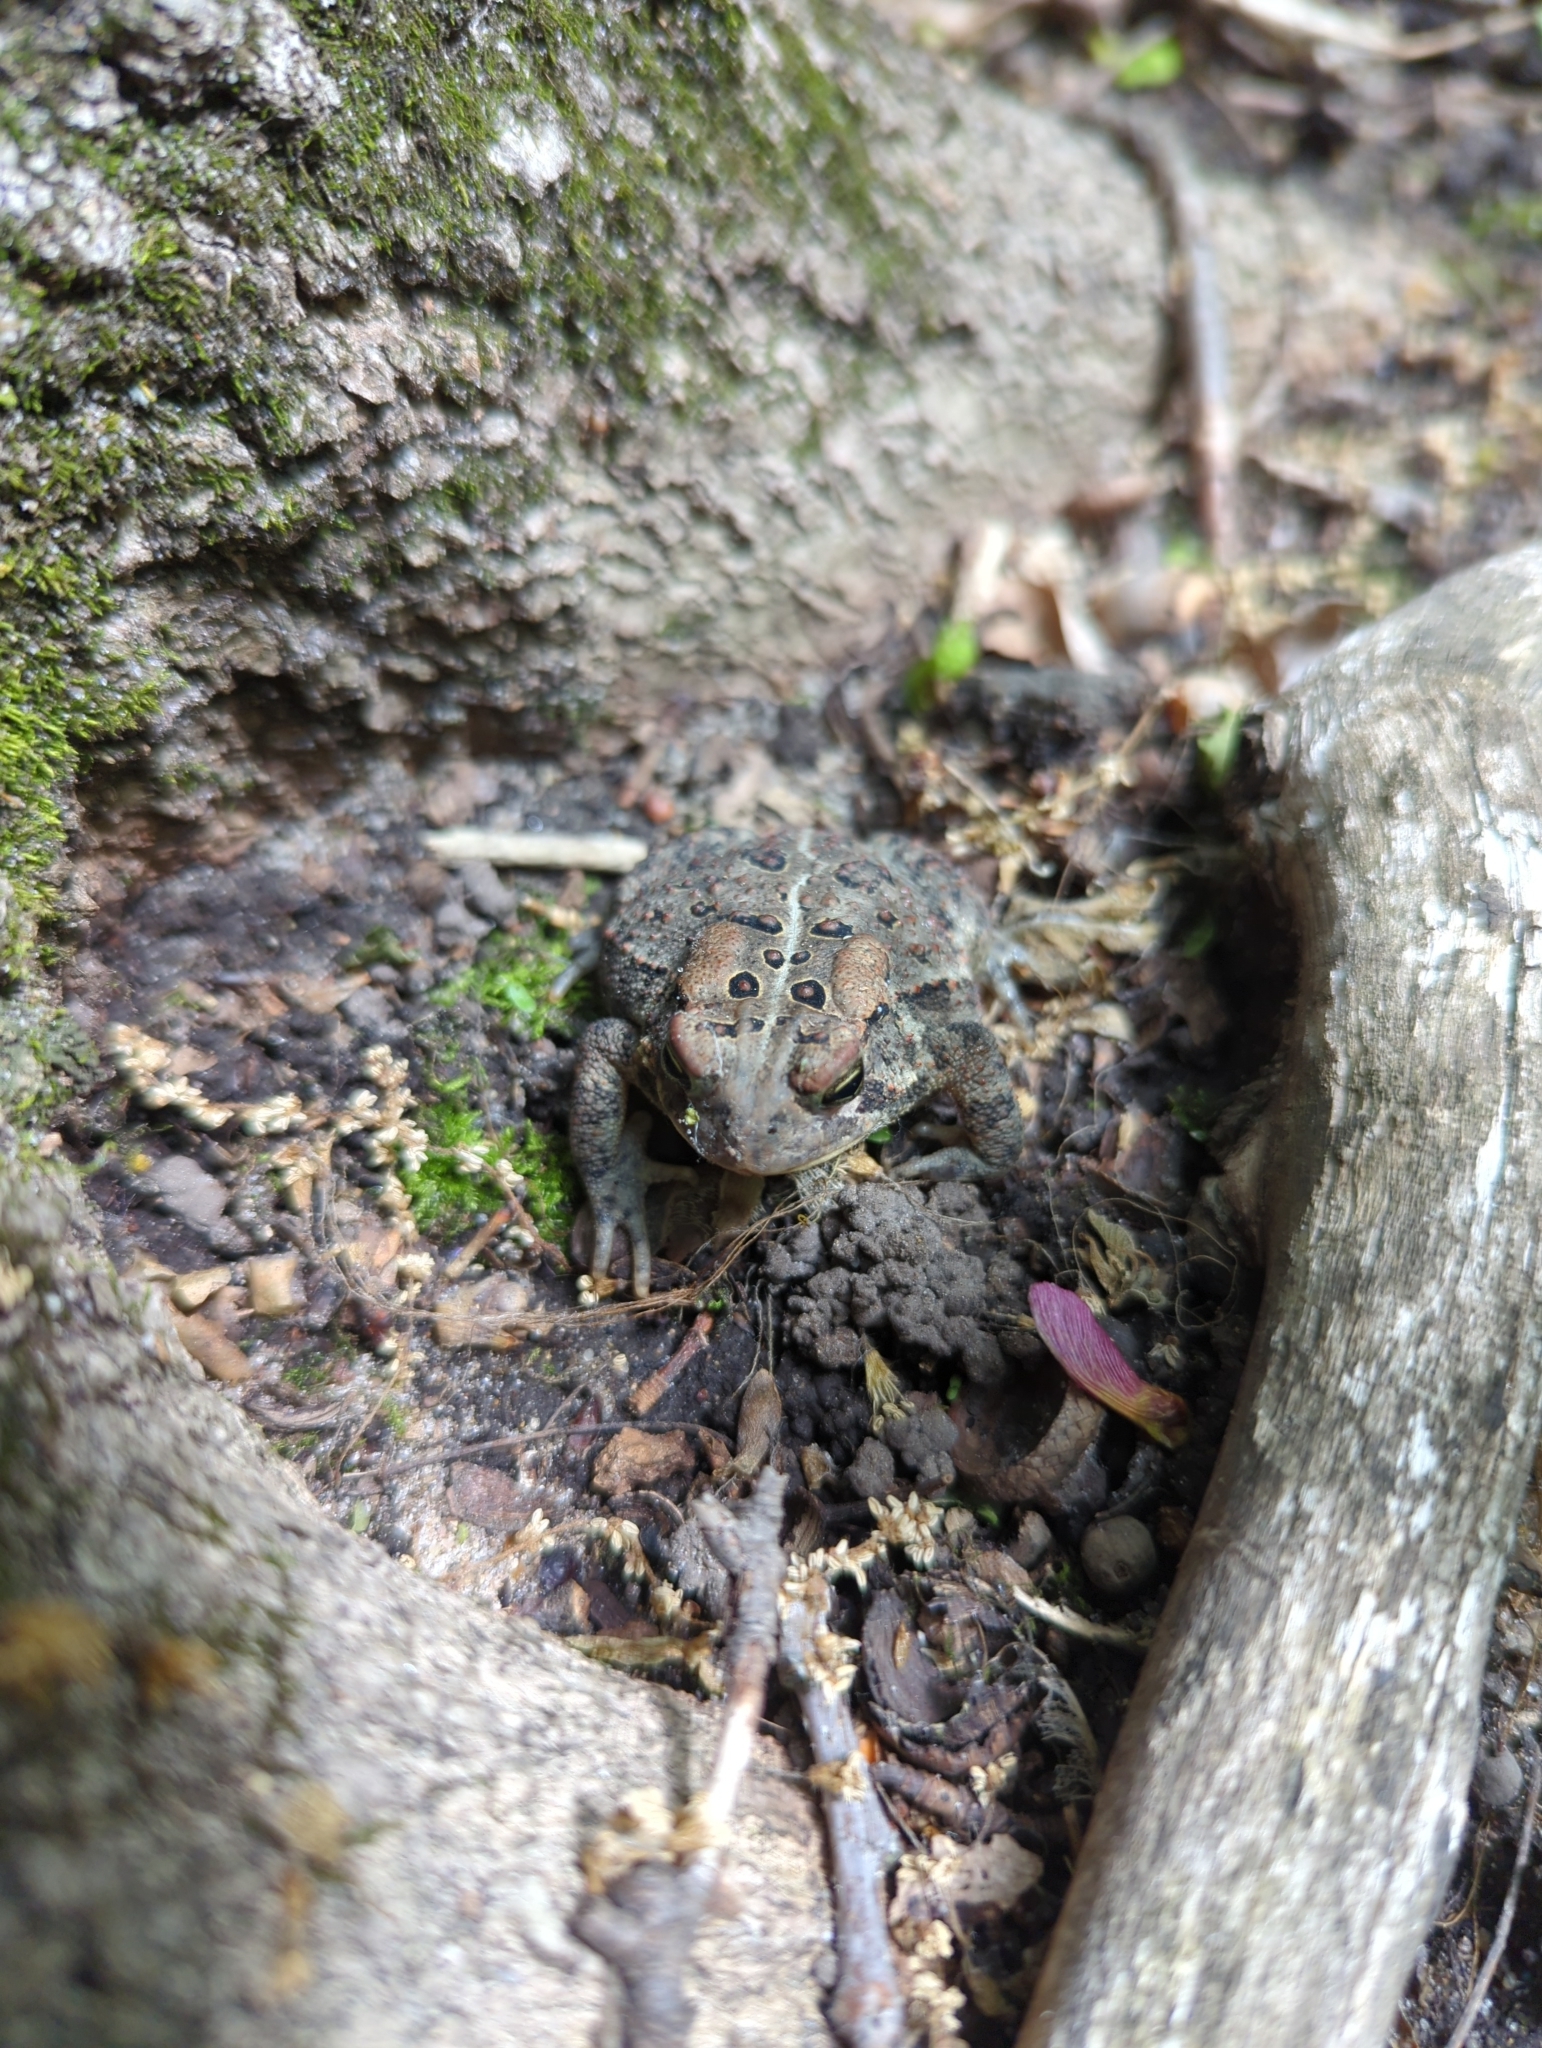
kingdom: Animalia
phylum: Chordata
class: Amphibia
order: Anura
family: Bufonidae
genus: Anaxyrus
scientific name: Anaxyrus americanus
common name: American toad
